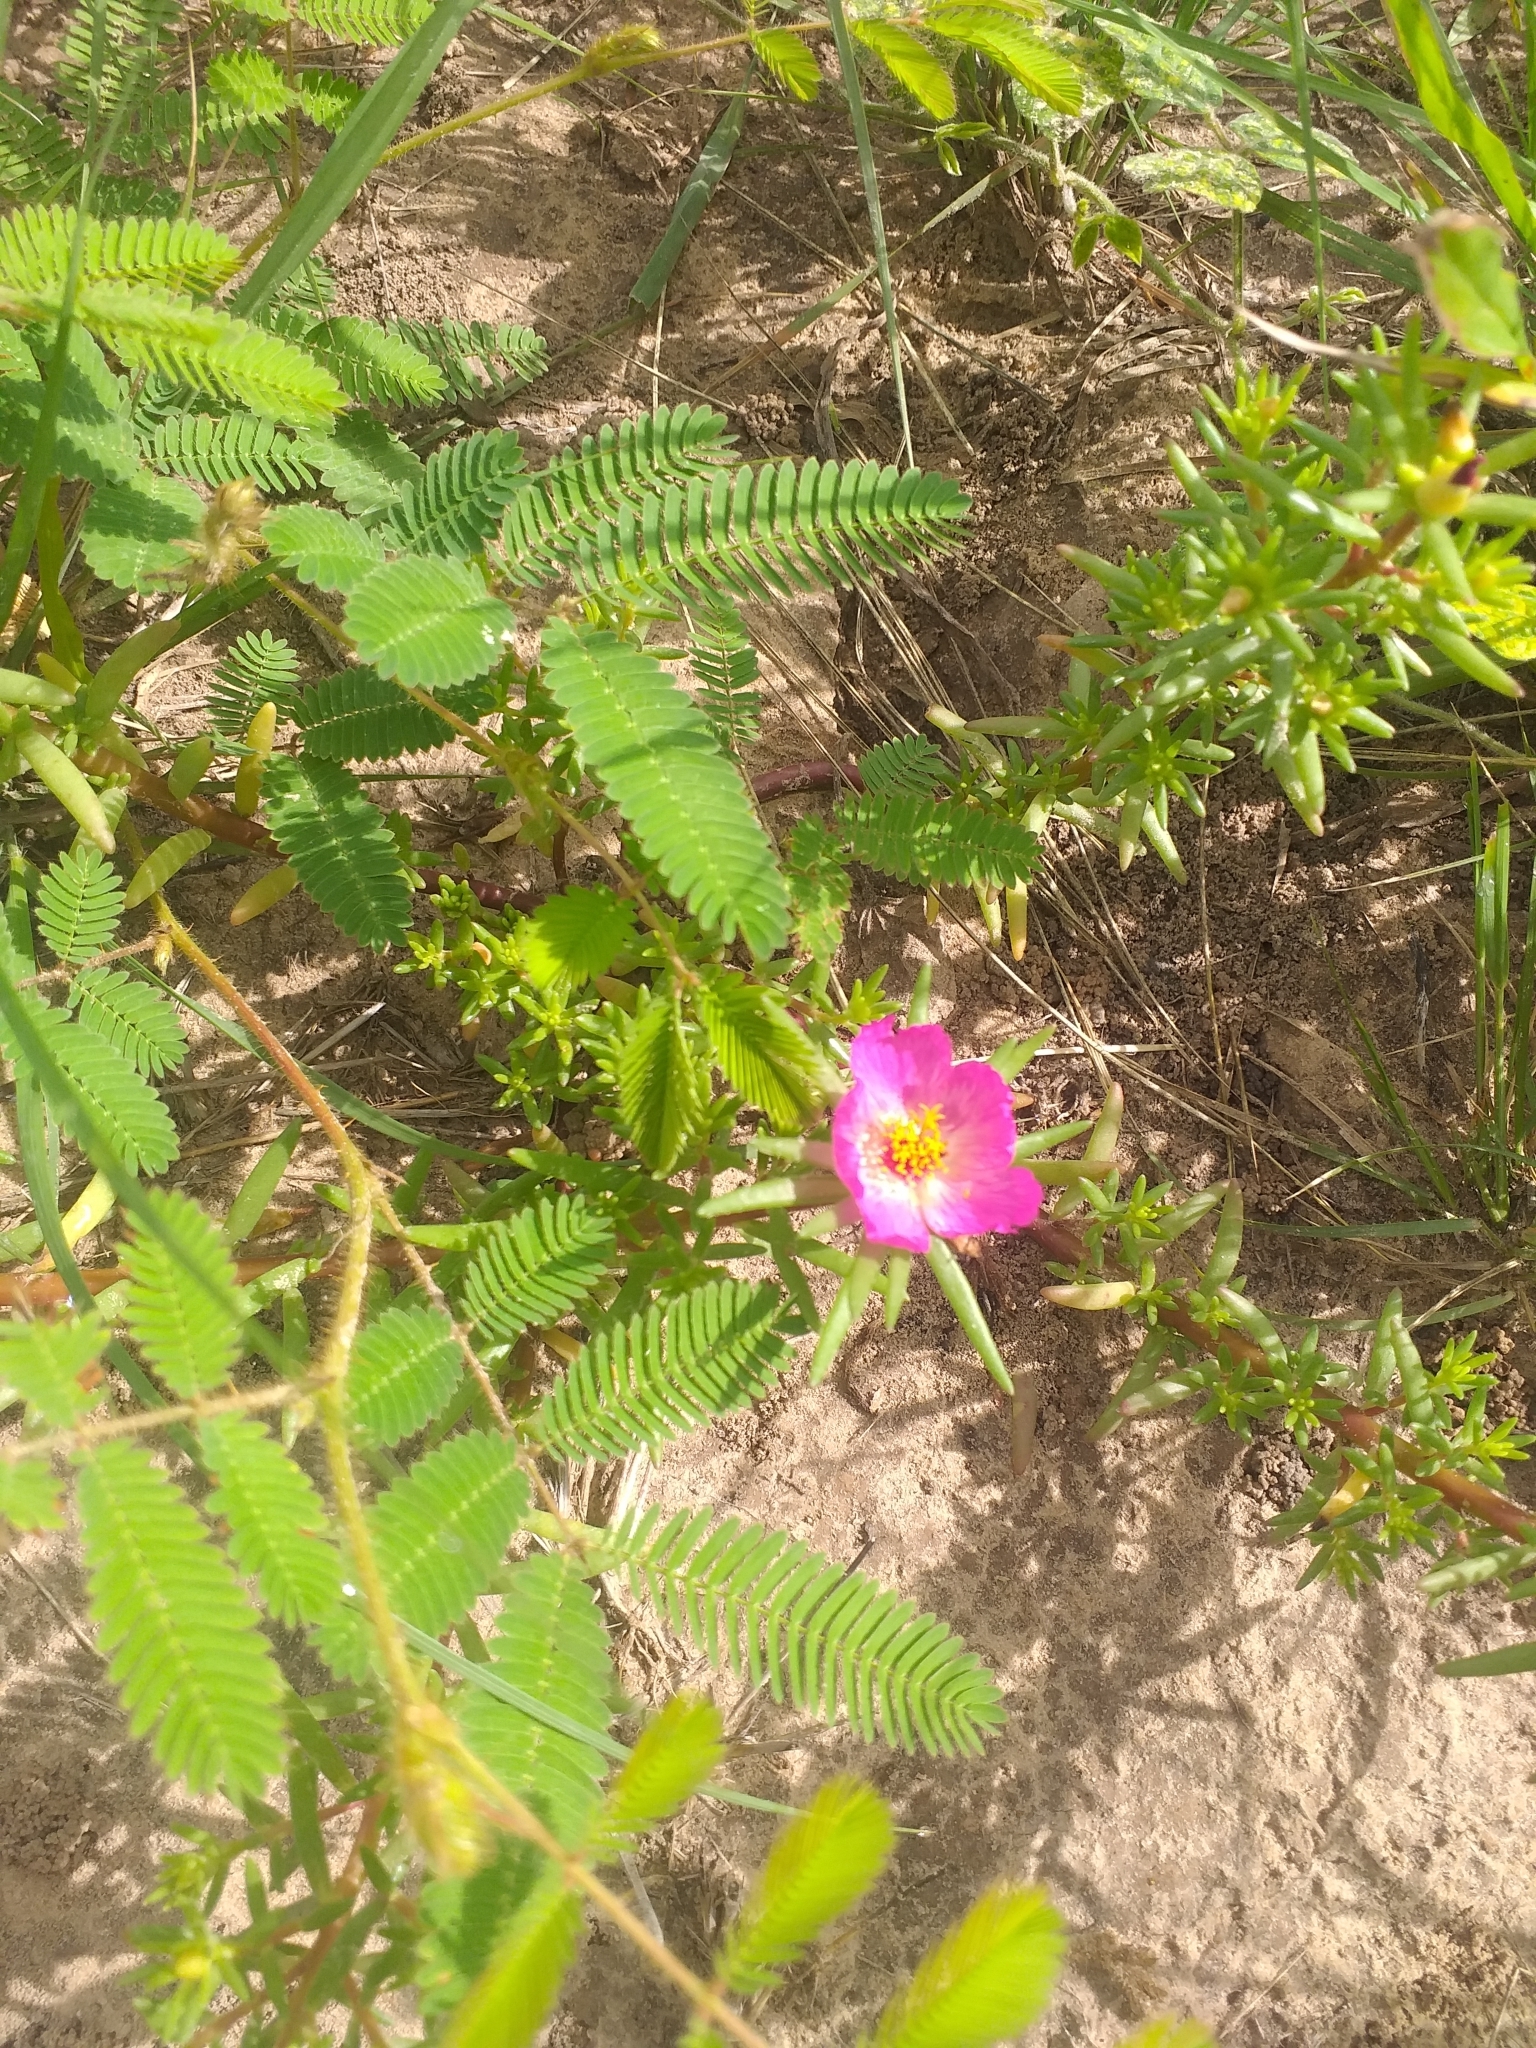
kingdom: Plantae
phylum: Tracheophyta
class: Magnoliopsida
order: Caryophyllales
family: Portulacaceae
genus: Portulaca
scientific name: Portulaca pilosa
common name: Kiss me quick
